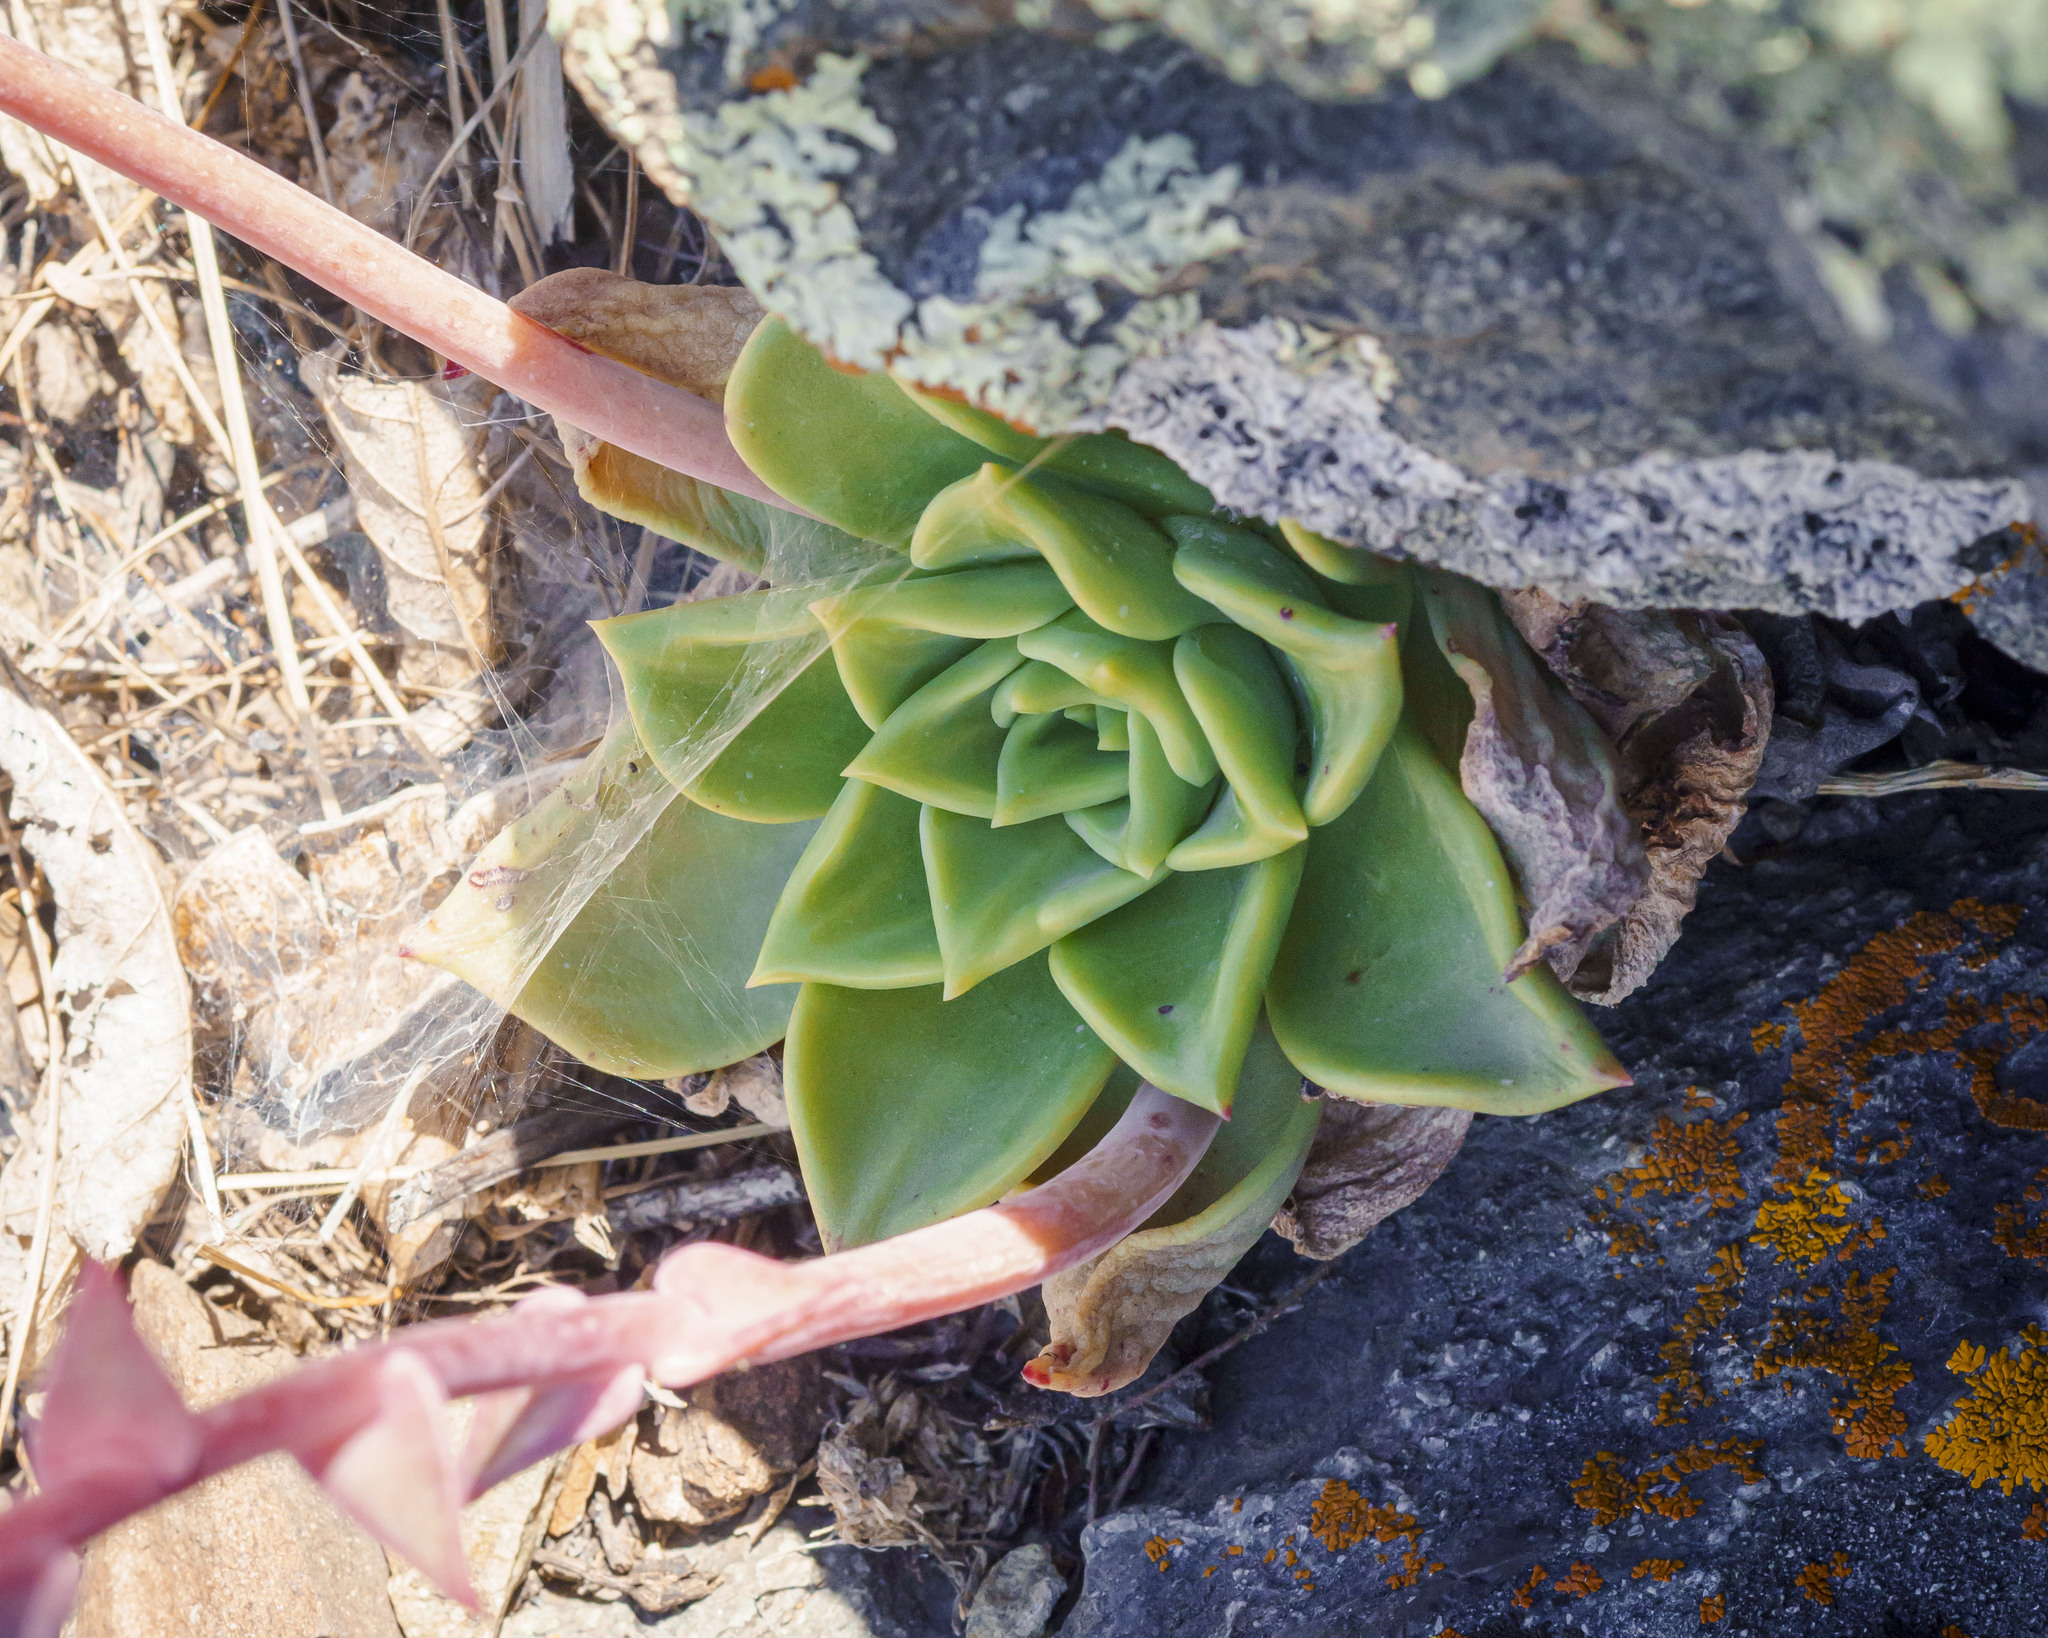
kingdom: Plantae
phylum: Tracheophyta
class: Magnoliopsida
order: Saxifragales
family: Crassulaceae
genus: Dudleya
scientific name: Dudleya rigida
